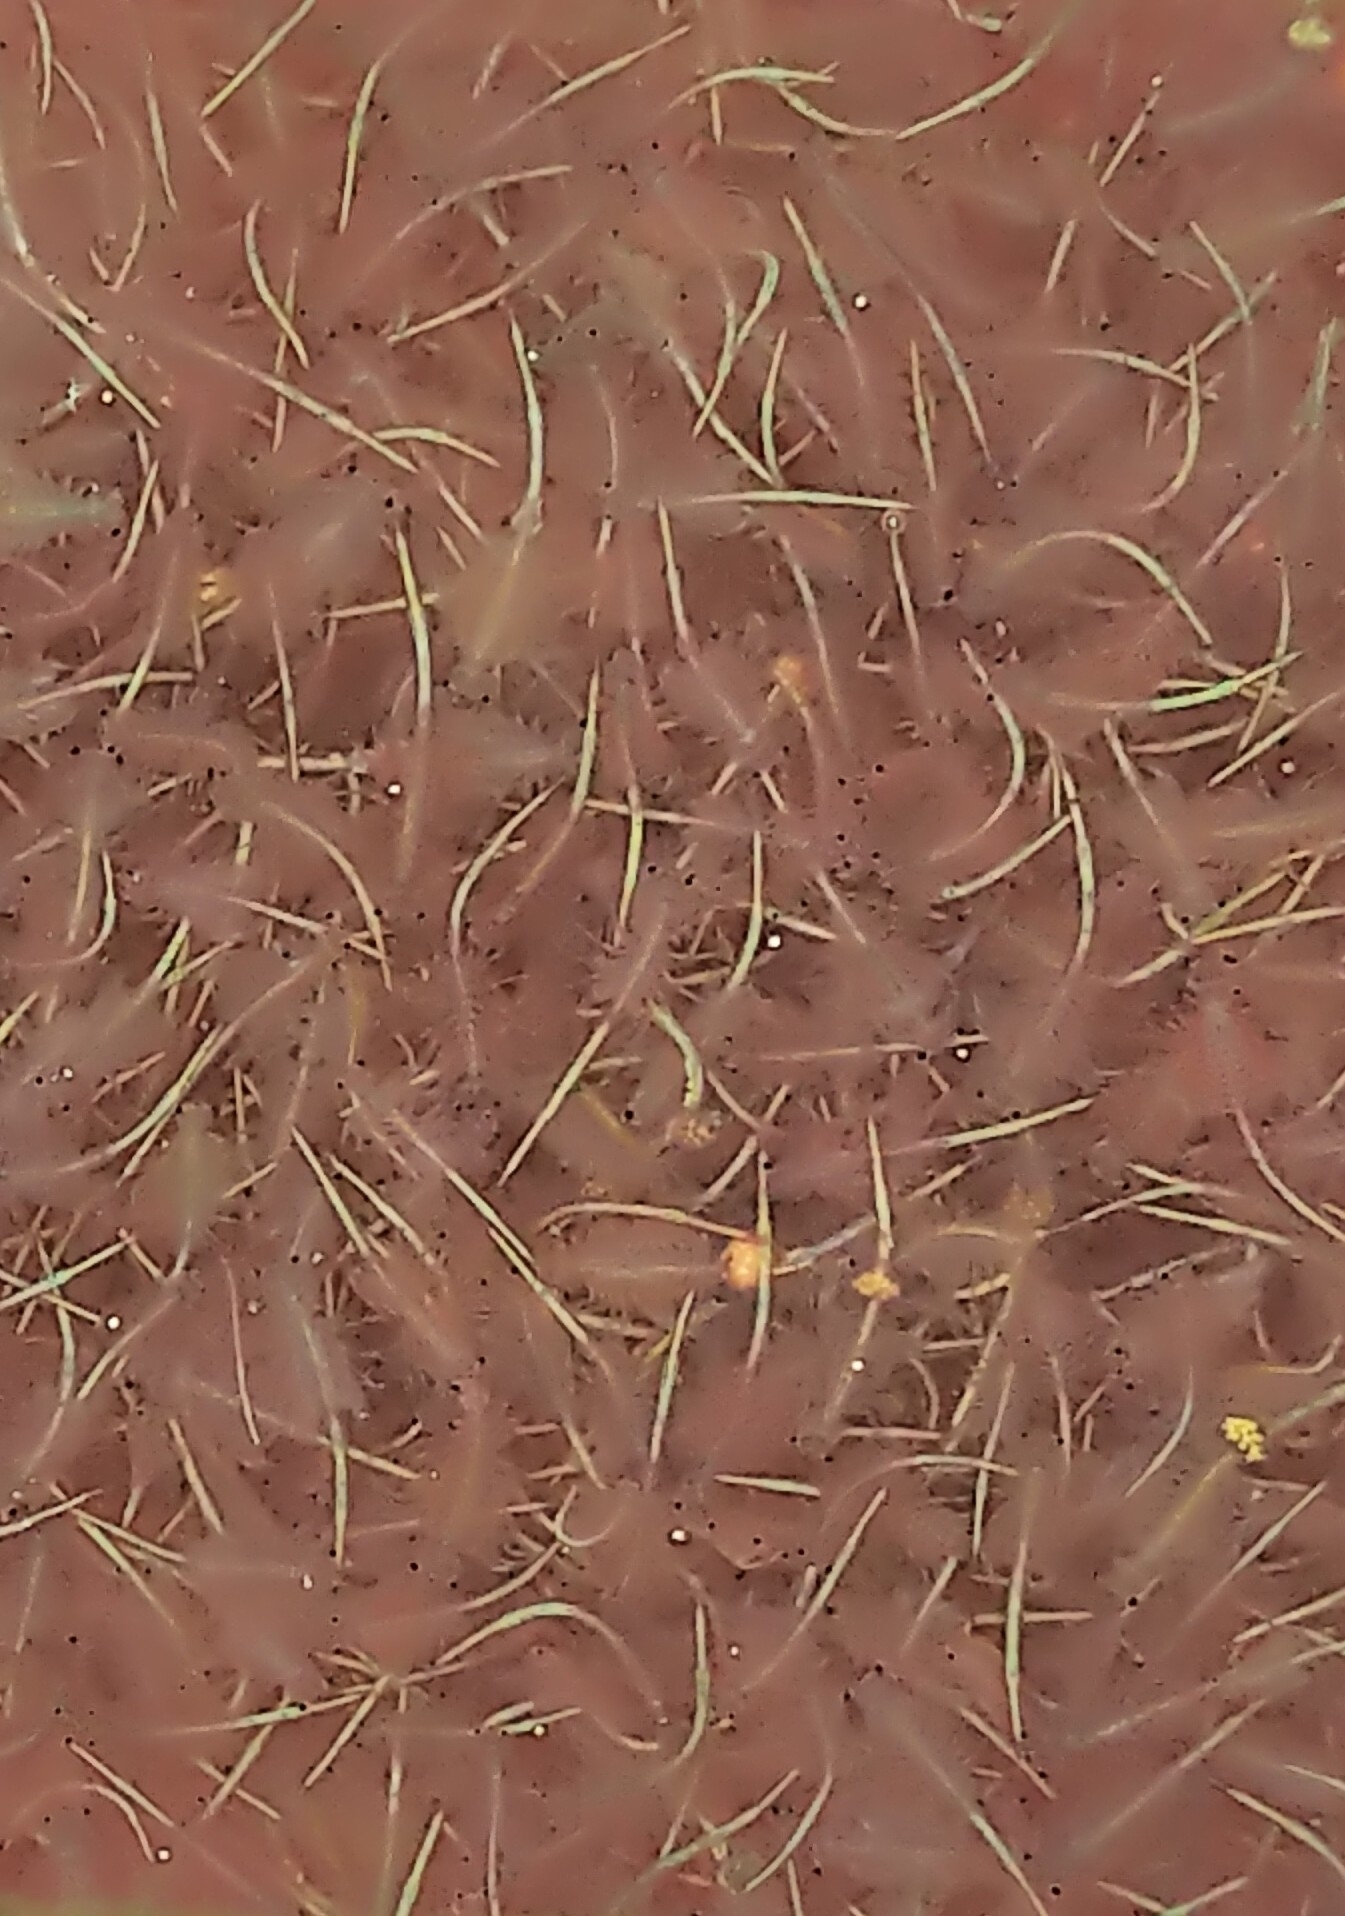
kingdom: Animalia
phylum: Arthropoda
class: Branchiopoda
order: Anostraca
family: Artemiidae
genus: Artemia
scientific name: Artemia monica
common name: Mono lake brine shrimp
